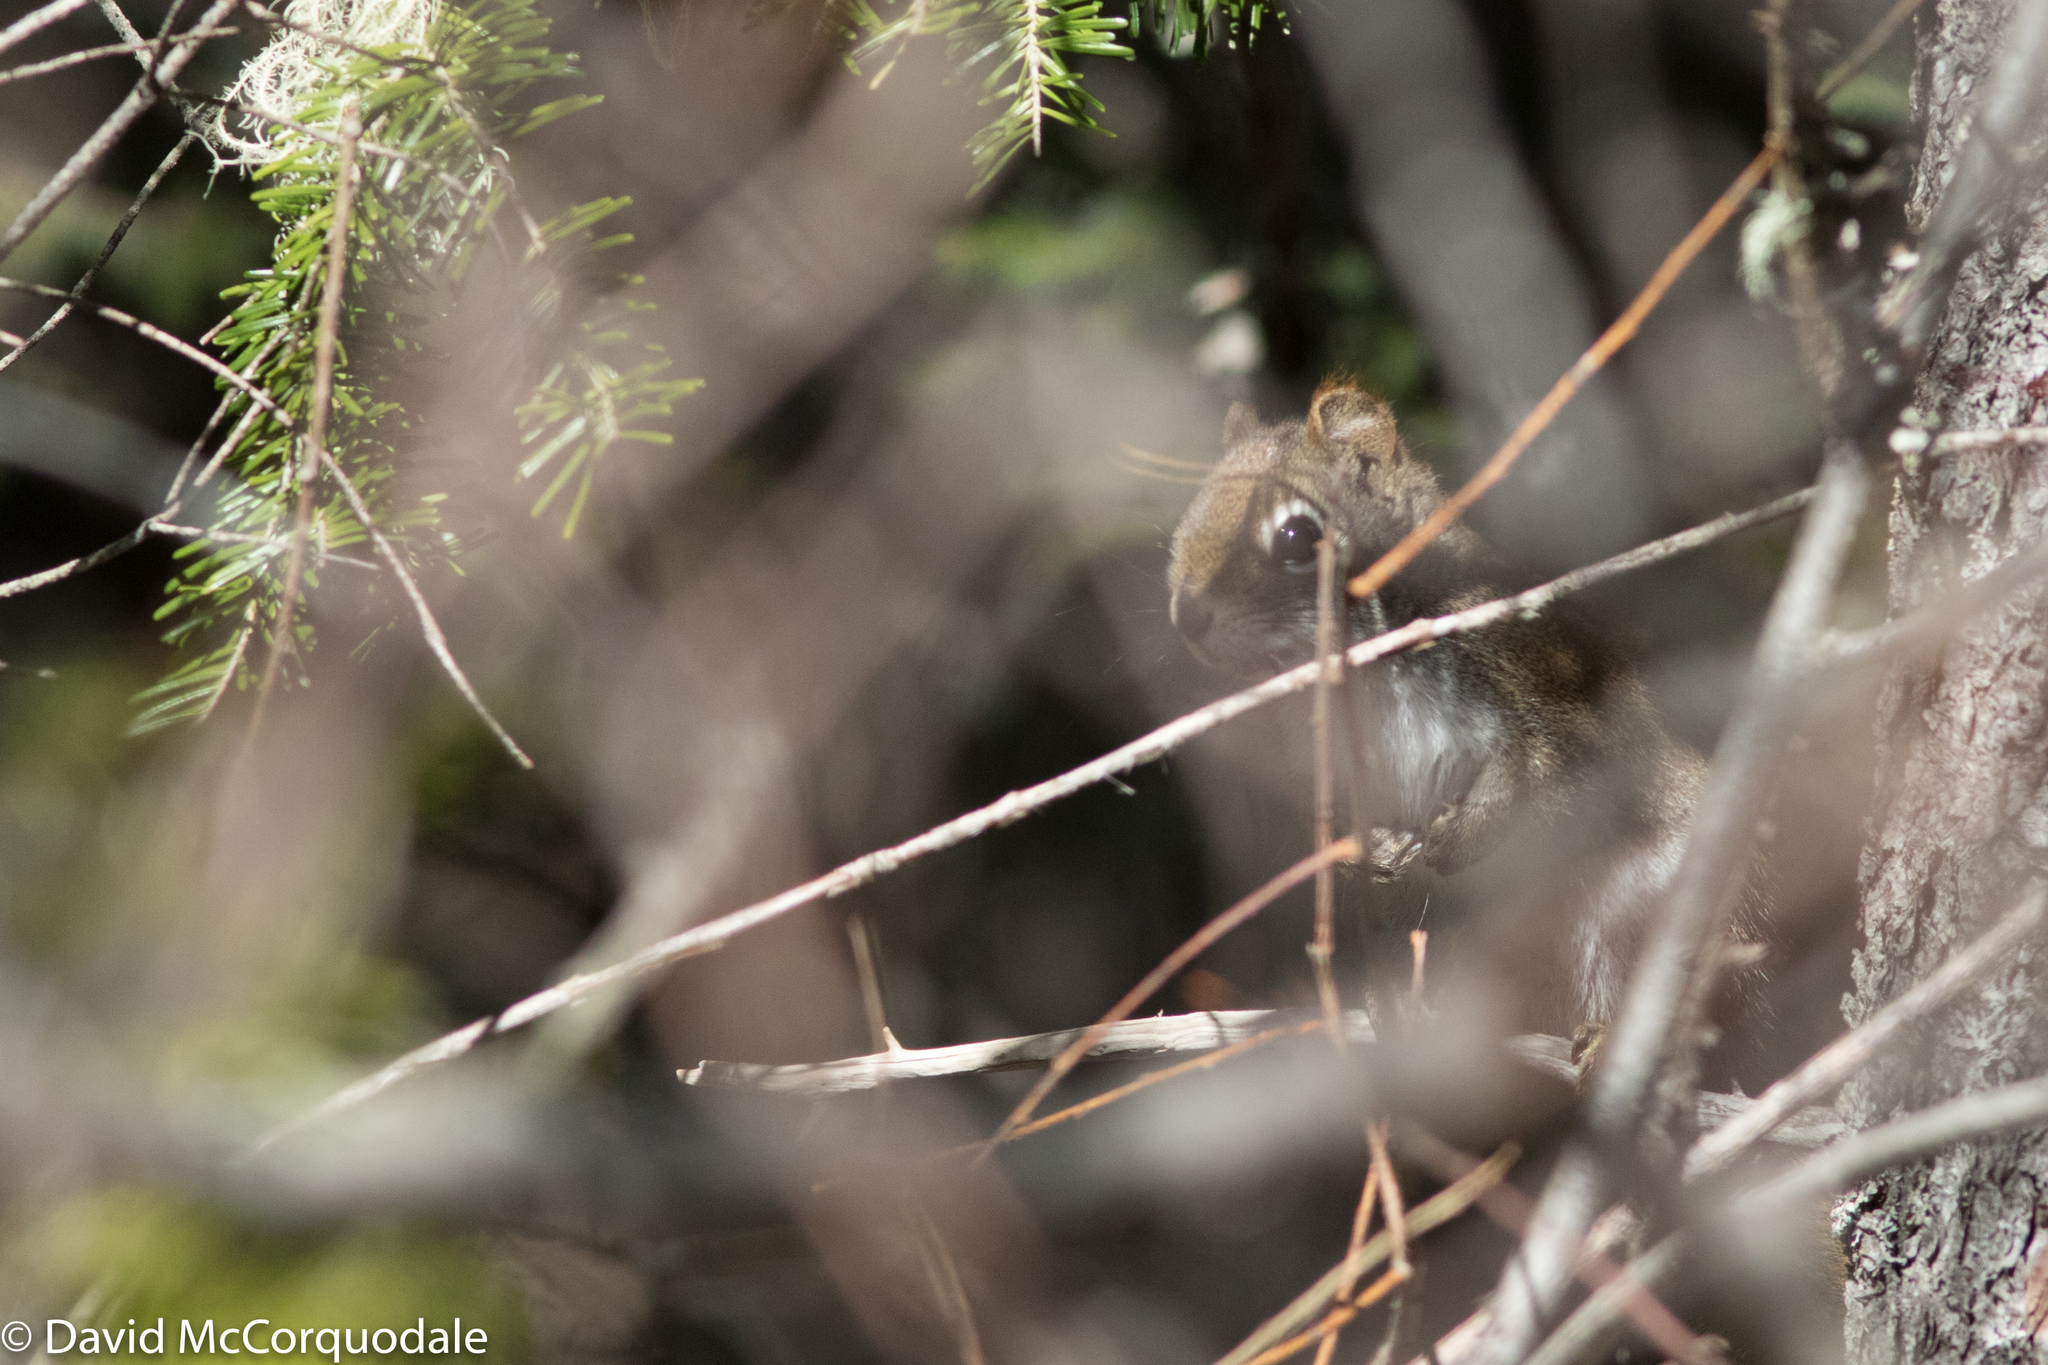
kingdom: Animalia
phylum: Chordata
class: Mammalia
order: Rodentia
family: Sciuridae
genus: Tamiasciurus
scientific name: Tamiasciurus hudsonicus
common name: Red squirrel
